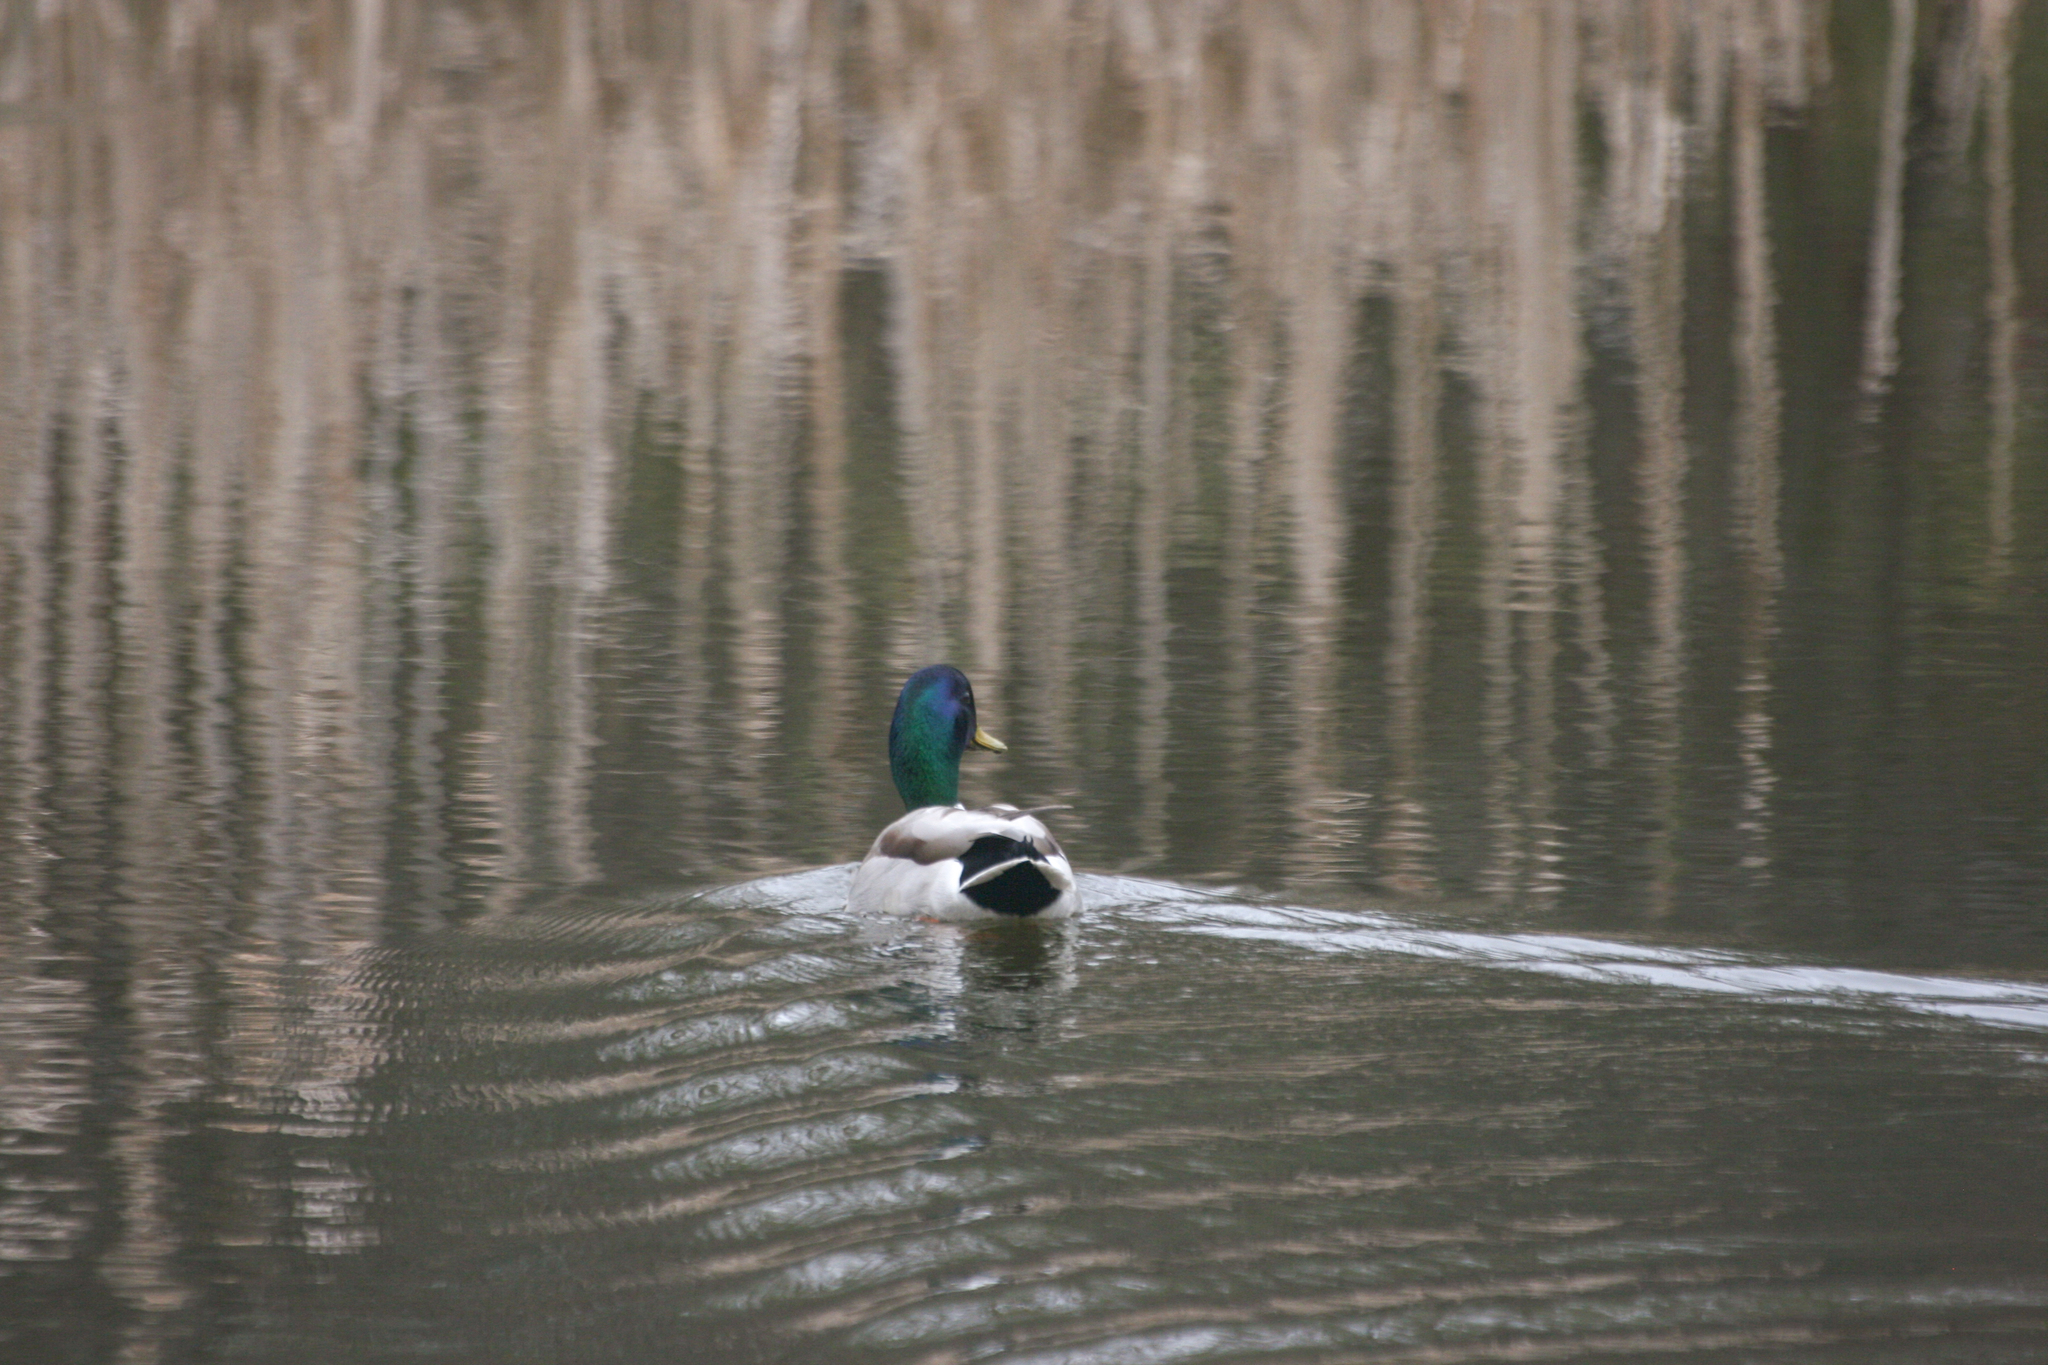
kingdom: Animalia
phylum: Chordata
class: Aves
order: Anseriformes
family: Anatidae
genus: Anas
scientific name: Anas platyrhynchos
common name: Mallard
